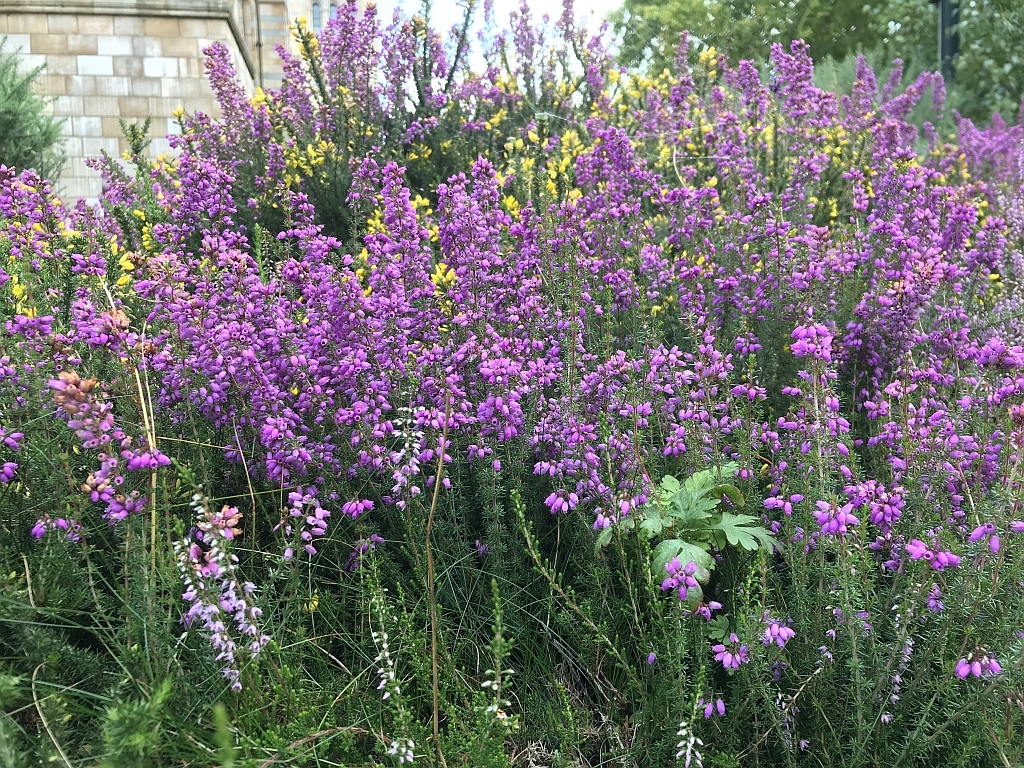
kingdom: Plantae
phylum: Tracheophyta
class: Magnoliopsida
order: Ericales
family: Ericaceae
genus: Erica
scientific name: Erica cinerea
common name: Bell heather
